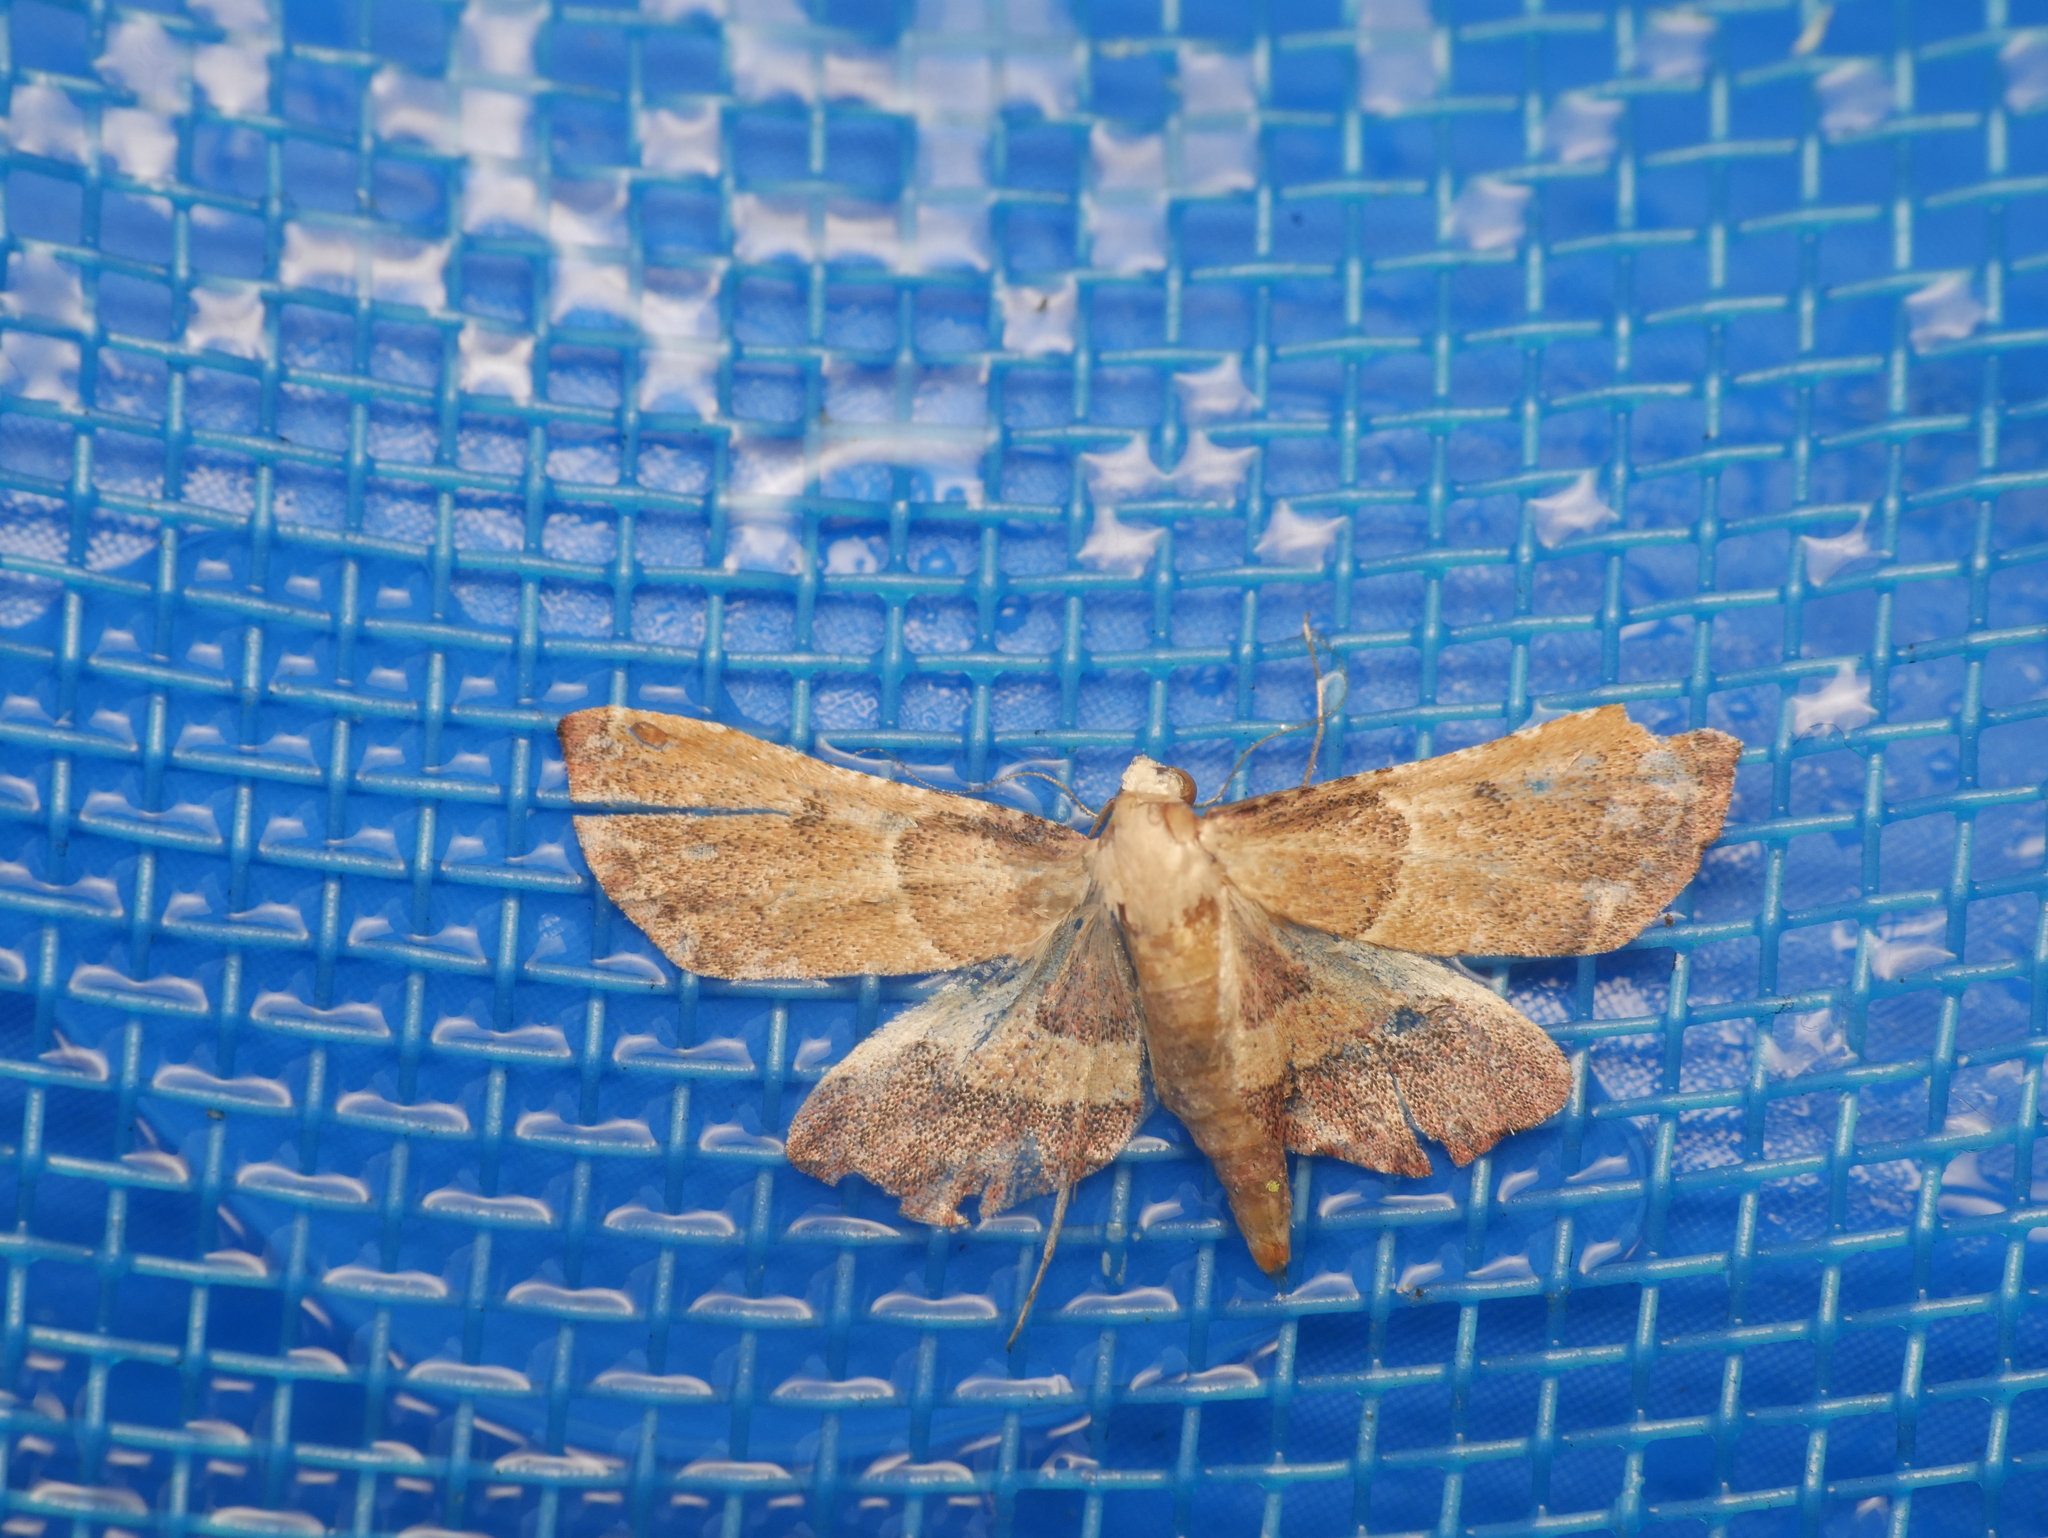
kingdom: Animalia
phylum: Arthropoda
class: Insecta
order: Lepidoptera
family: Pyralidae
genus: Endotricha
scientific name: Endotricha flammealis
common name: Rosy tabby
